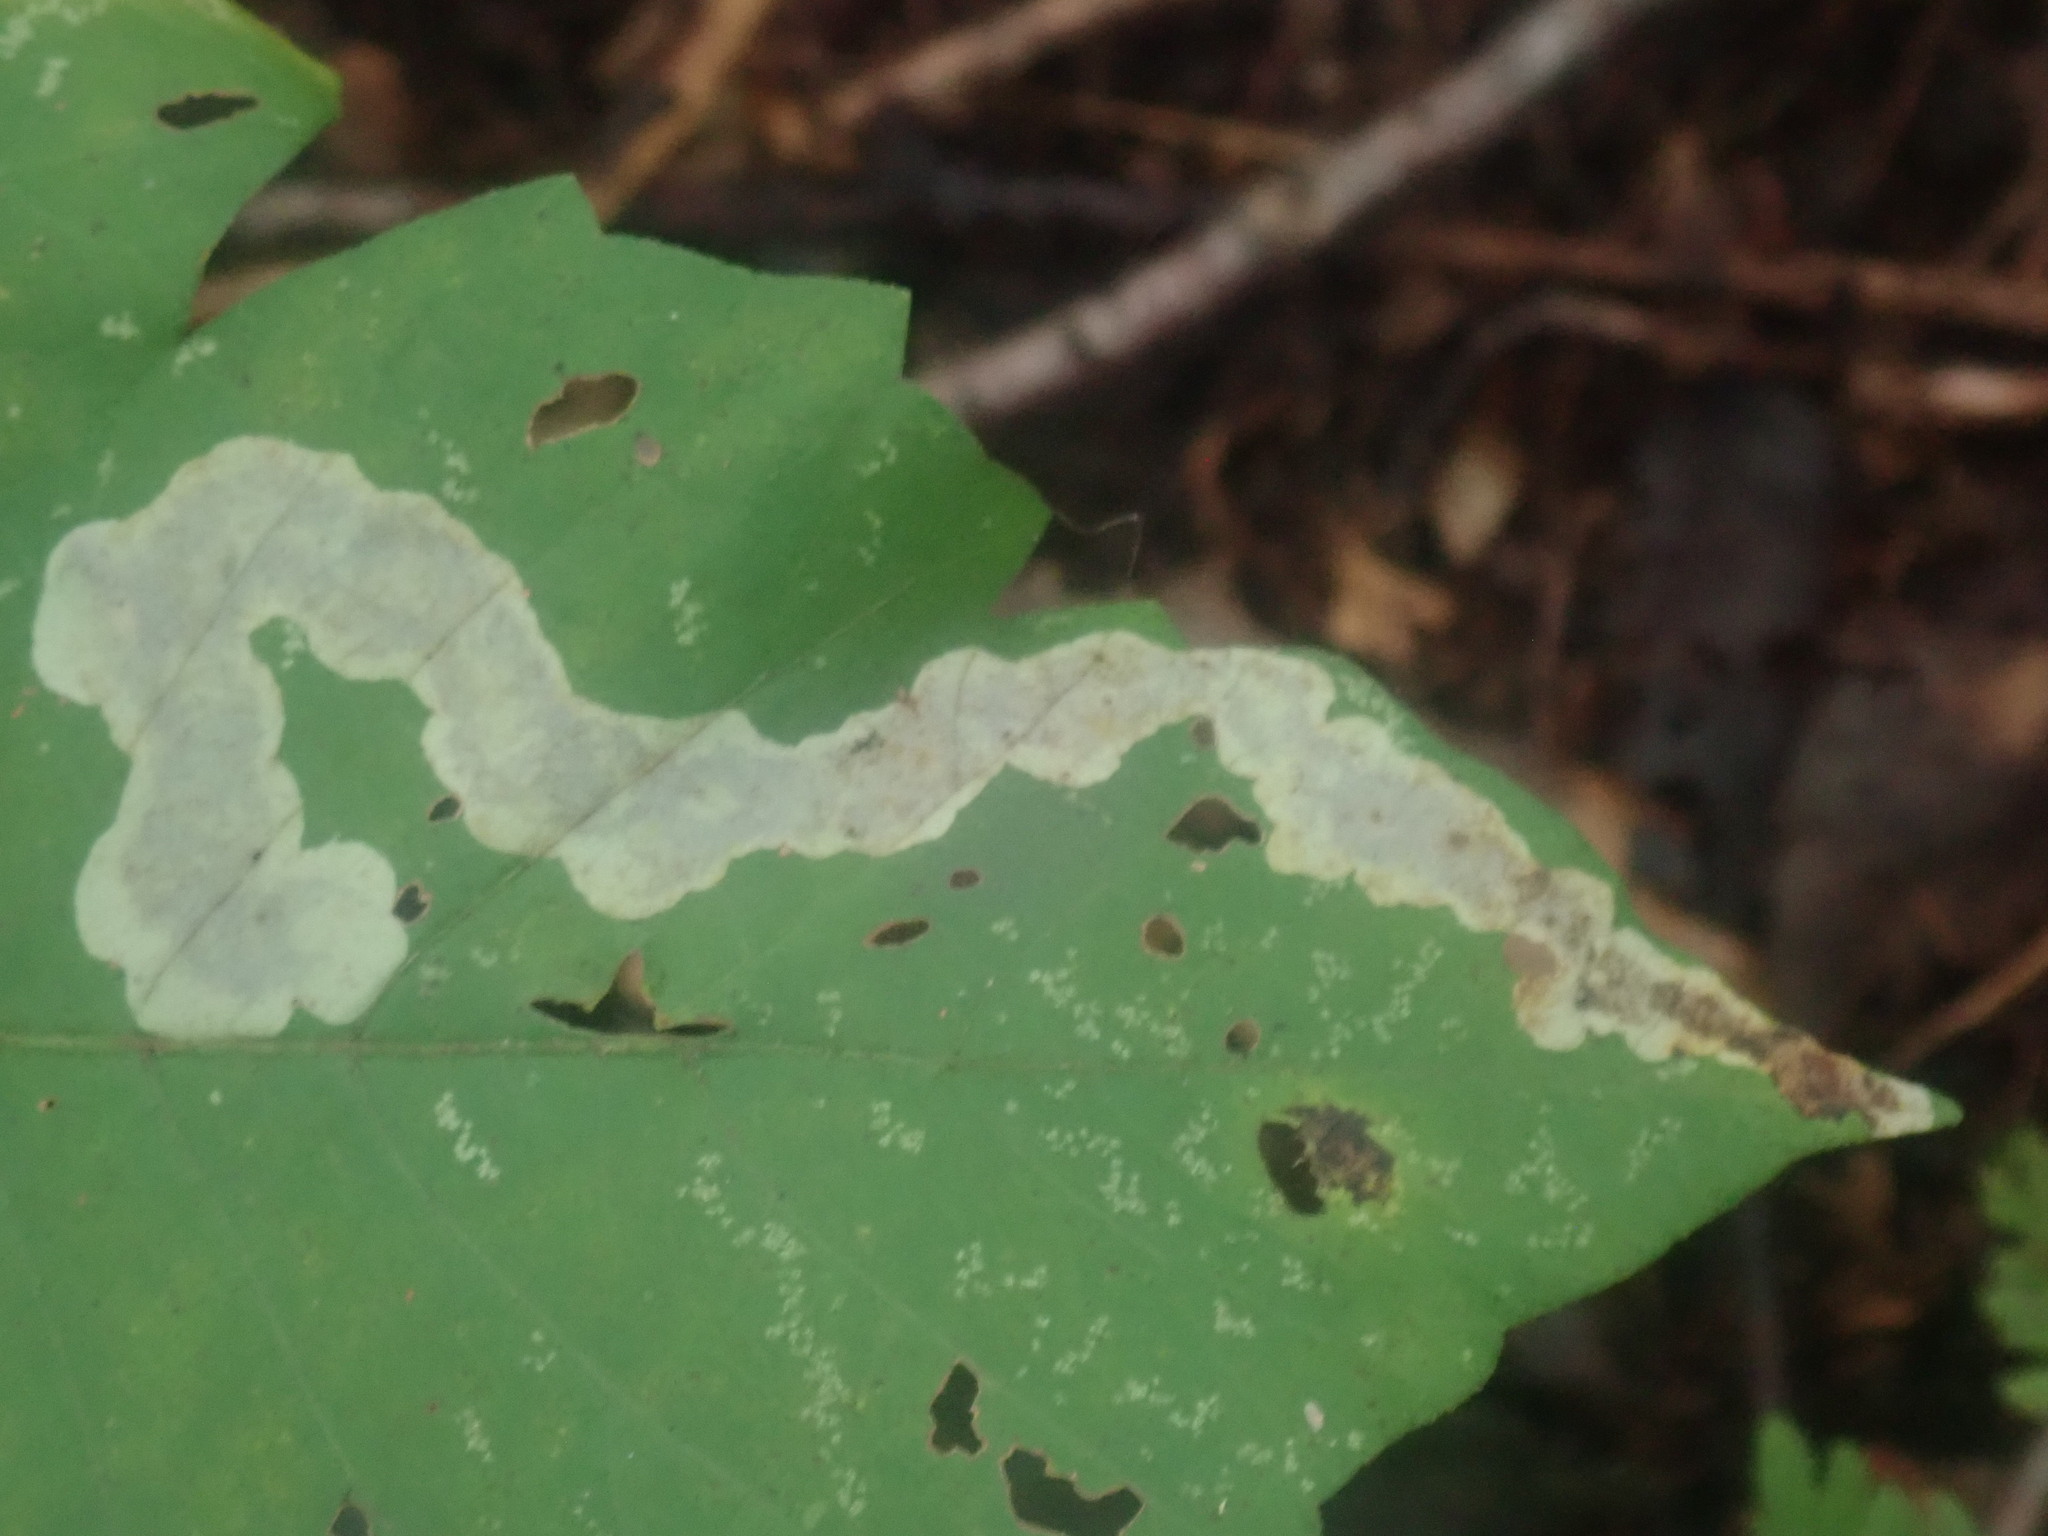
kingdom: Animalia
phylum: Arthropoda
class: Insecta
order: Lepidoptera
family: Gracillariidae
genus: Cameraria
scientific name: Cameraria guttifinitella
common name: Poison ivy leaf-miner moth
